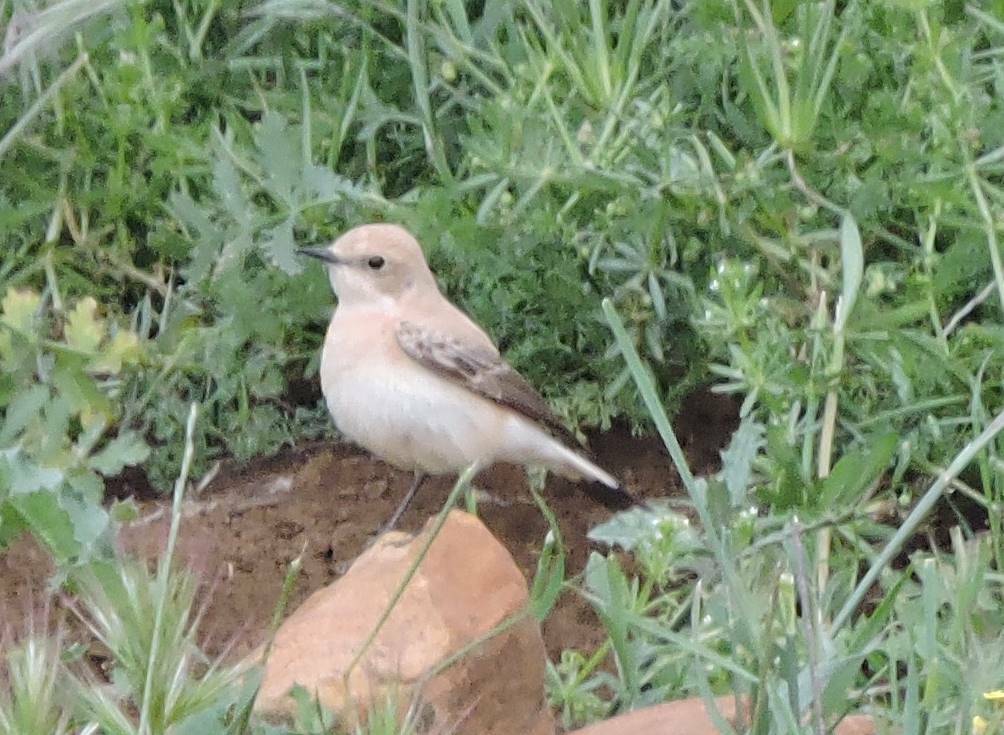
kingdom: Animalia
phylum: Chordata
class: Aves
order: Passeriformes
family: Muscicapidae
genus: Oenanthe
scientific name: Oenanthe hispanica
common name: Black-eared wheatear
